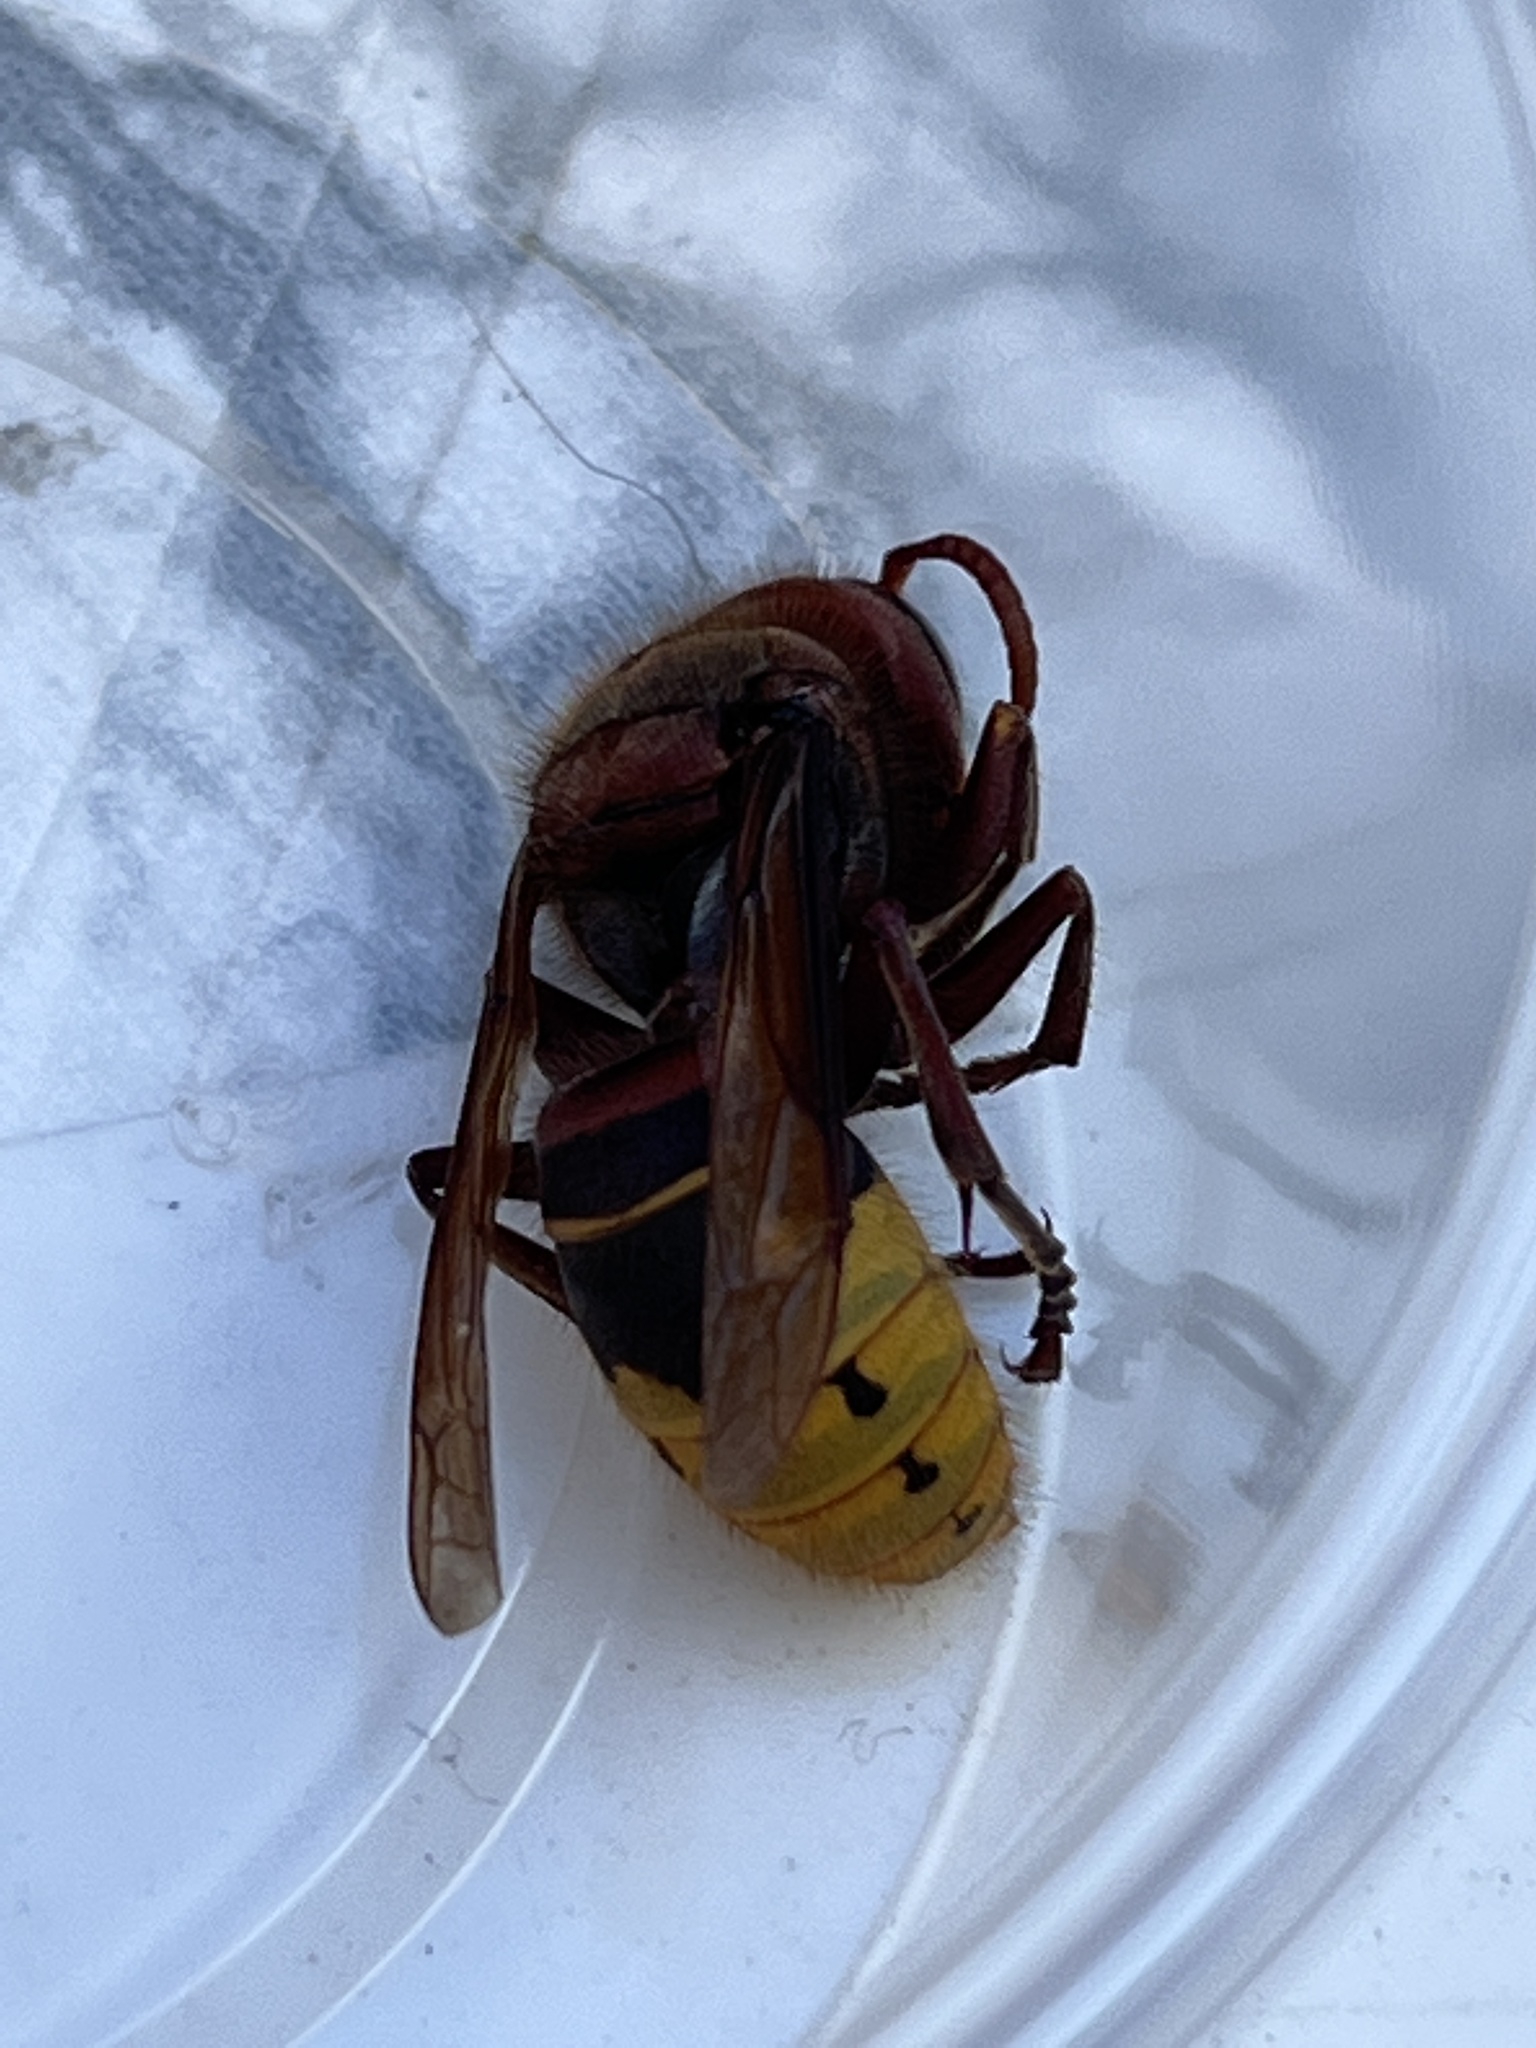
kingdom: Animalia
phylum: Arthropoda
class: Insecta
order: Hymenoptera
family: Vespidae
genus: Vespa
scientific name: Vespa crabro
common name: Hornet
